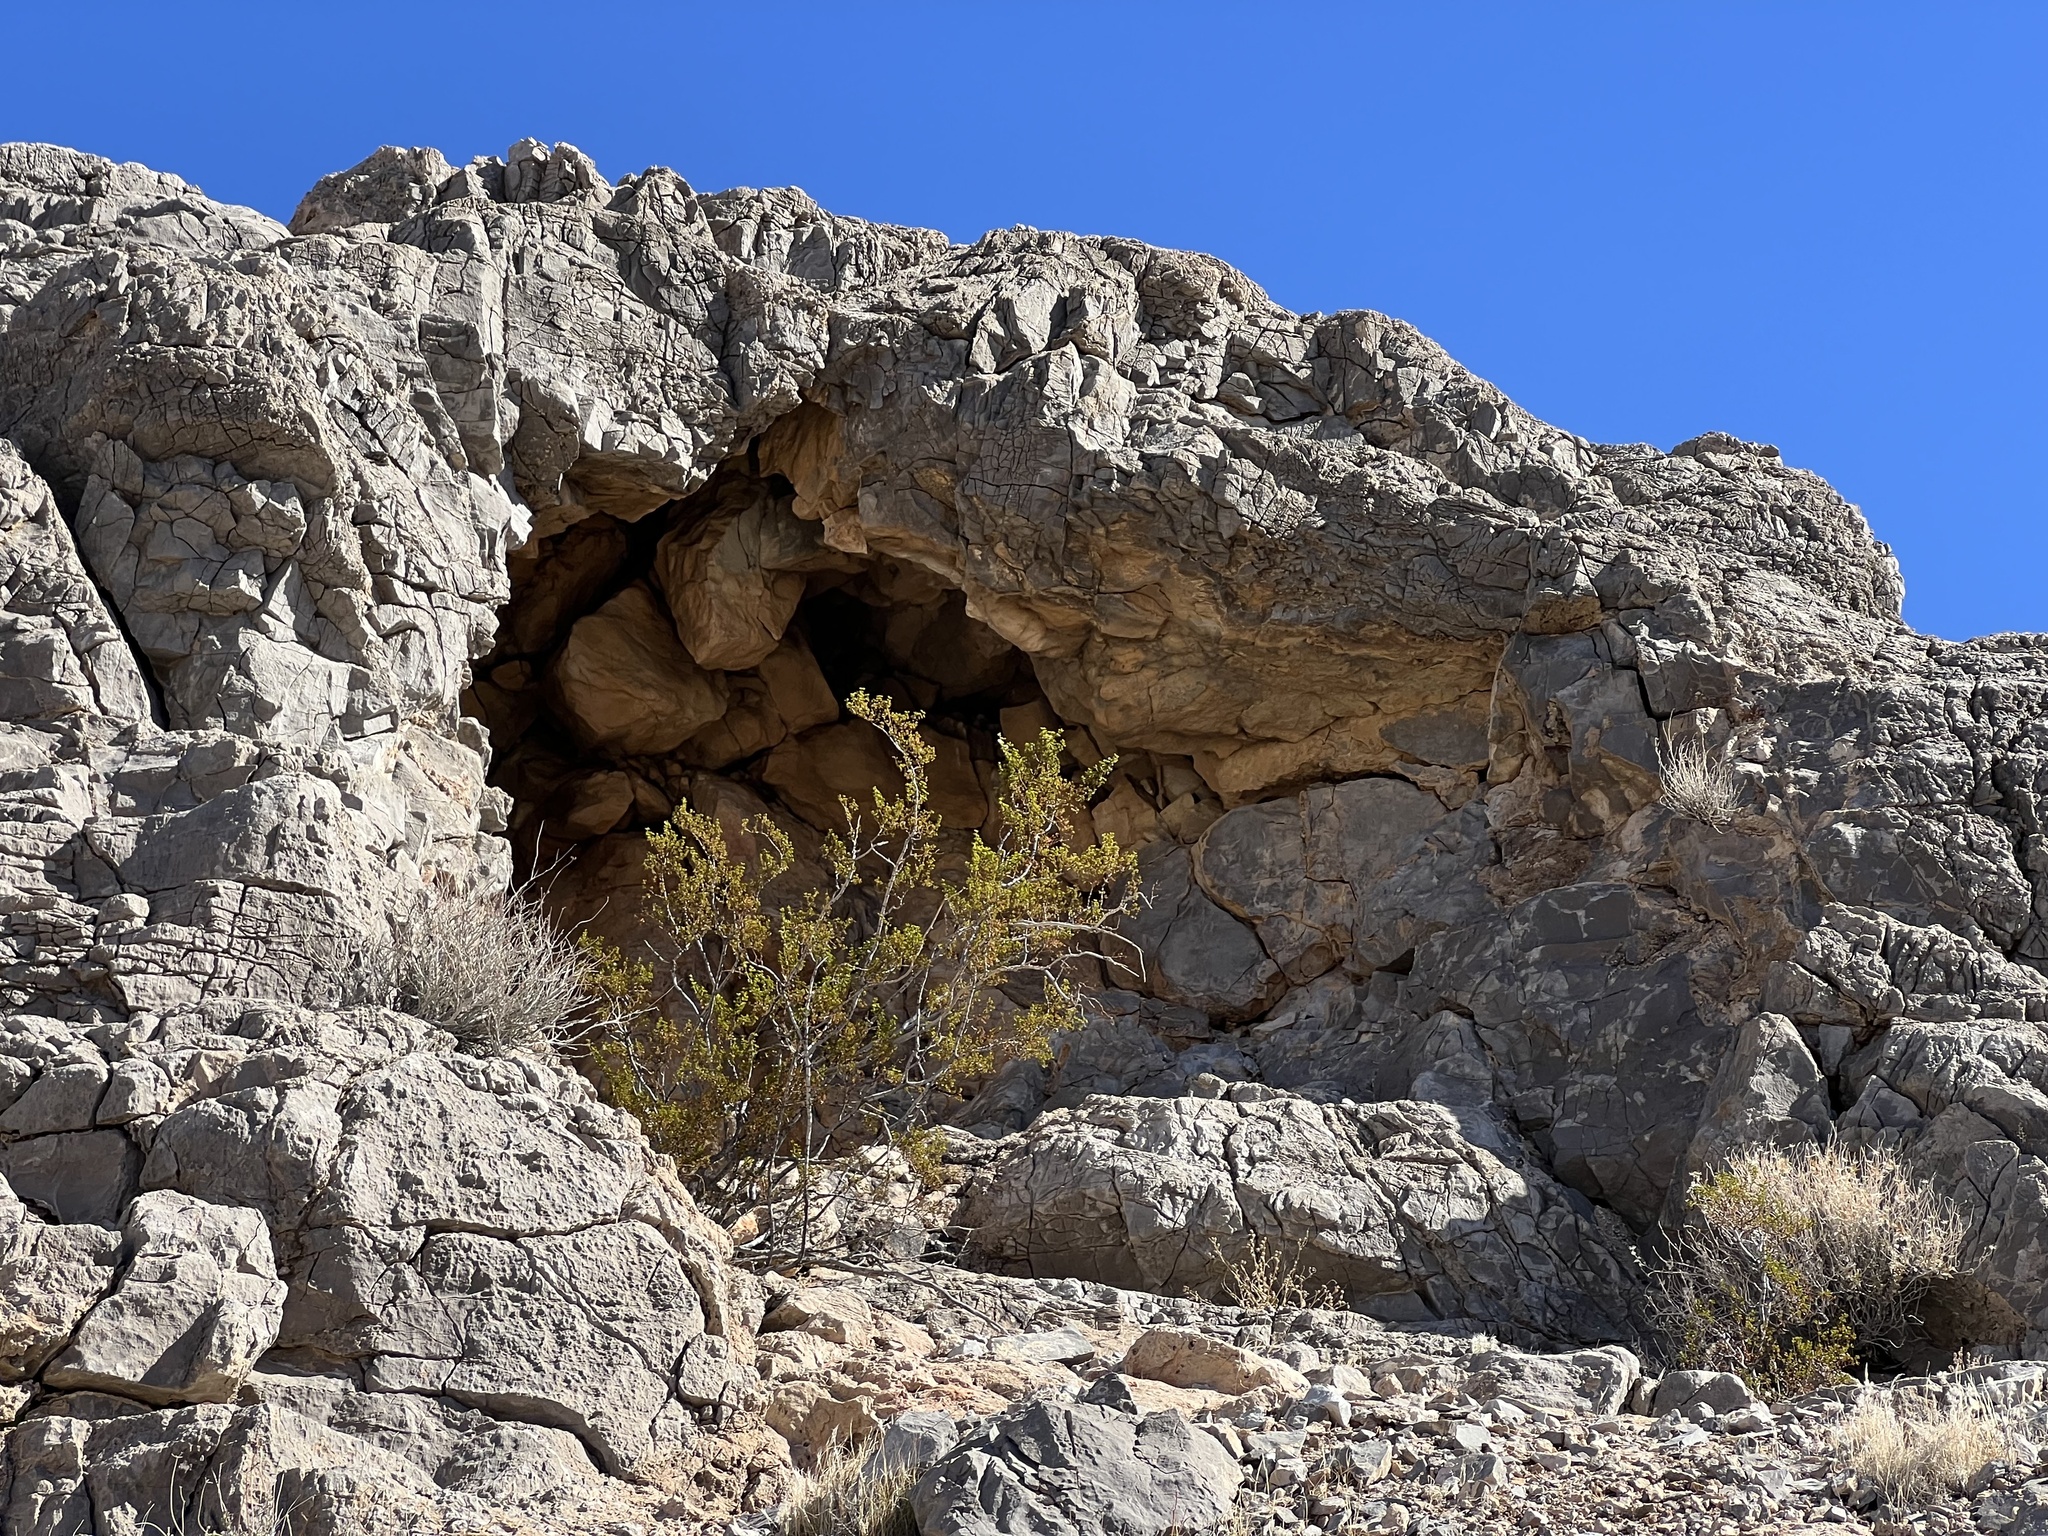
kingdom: Plantae
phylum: Tracheophyta
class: Magnoliopsida
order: Zygophyllales
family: Zygophyllaceae
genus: Larrea
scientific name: Larrea tridentata
